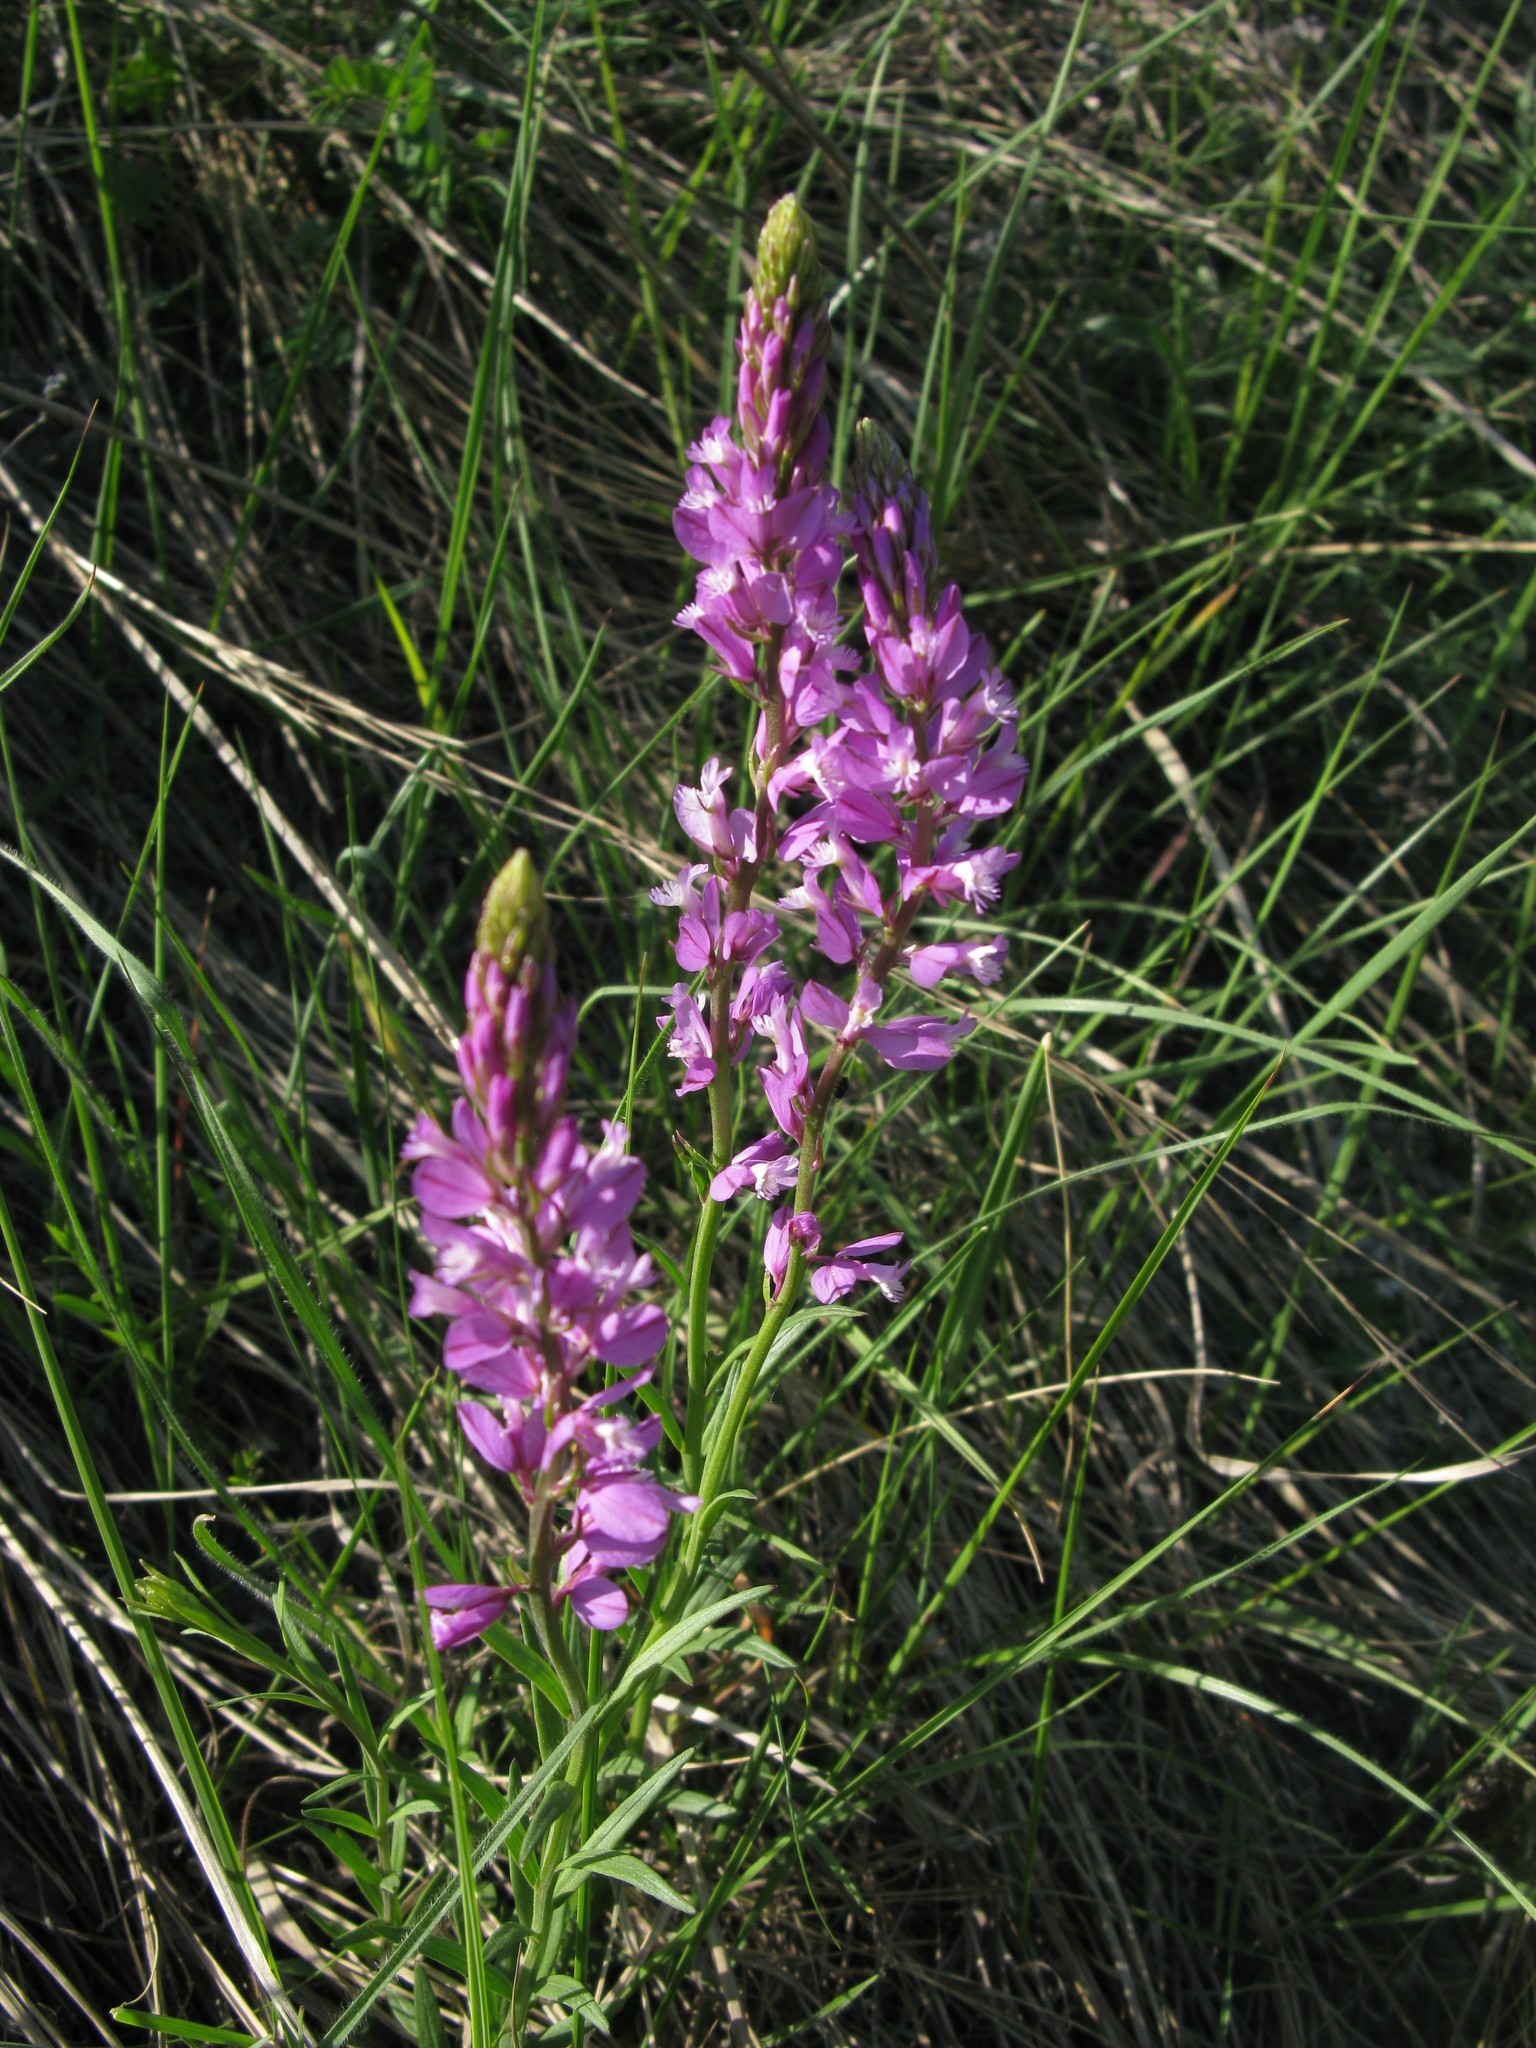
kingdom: Plantae
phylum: Tracheophyta
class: Magnoliopsida
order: Fabales
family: Polygalaceae
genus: Polygala
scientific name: Polygala nicaeensis
